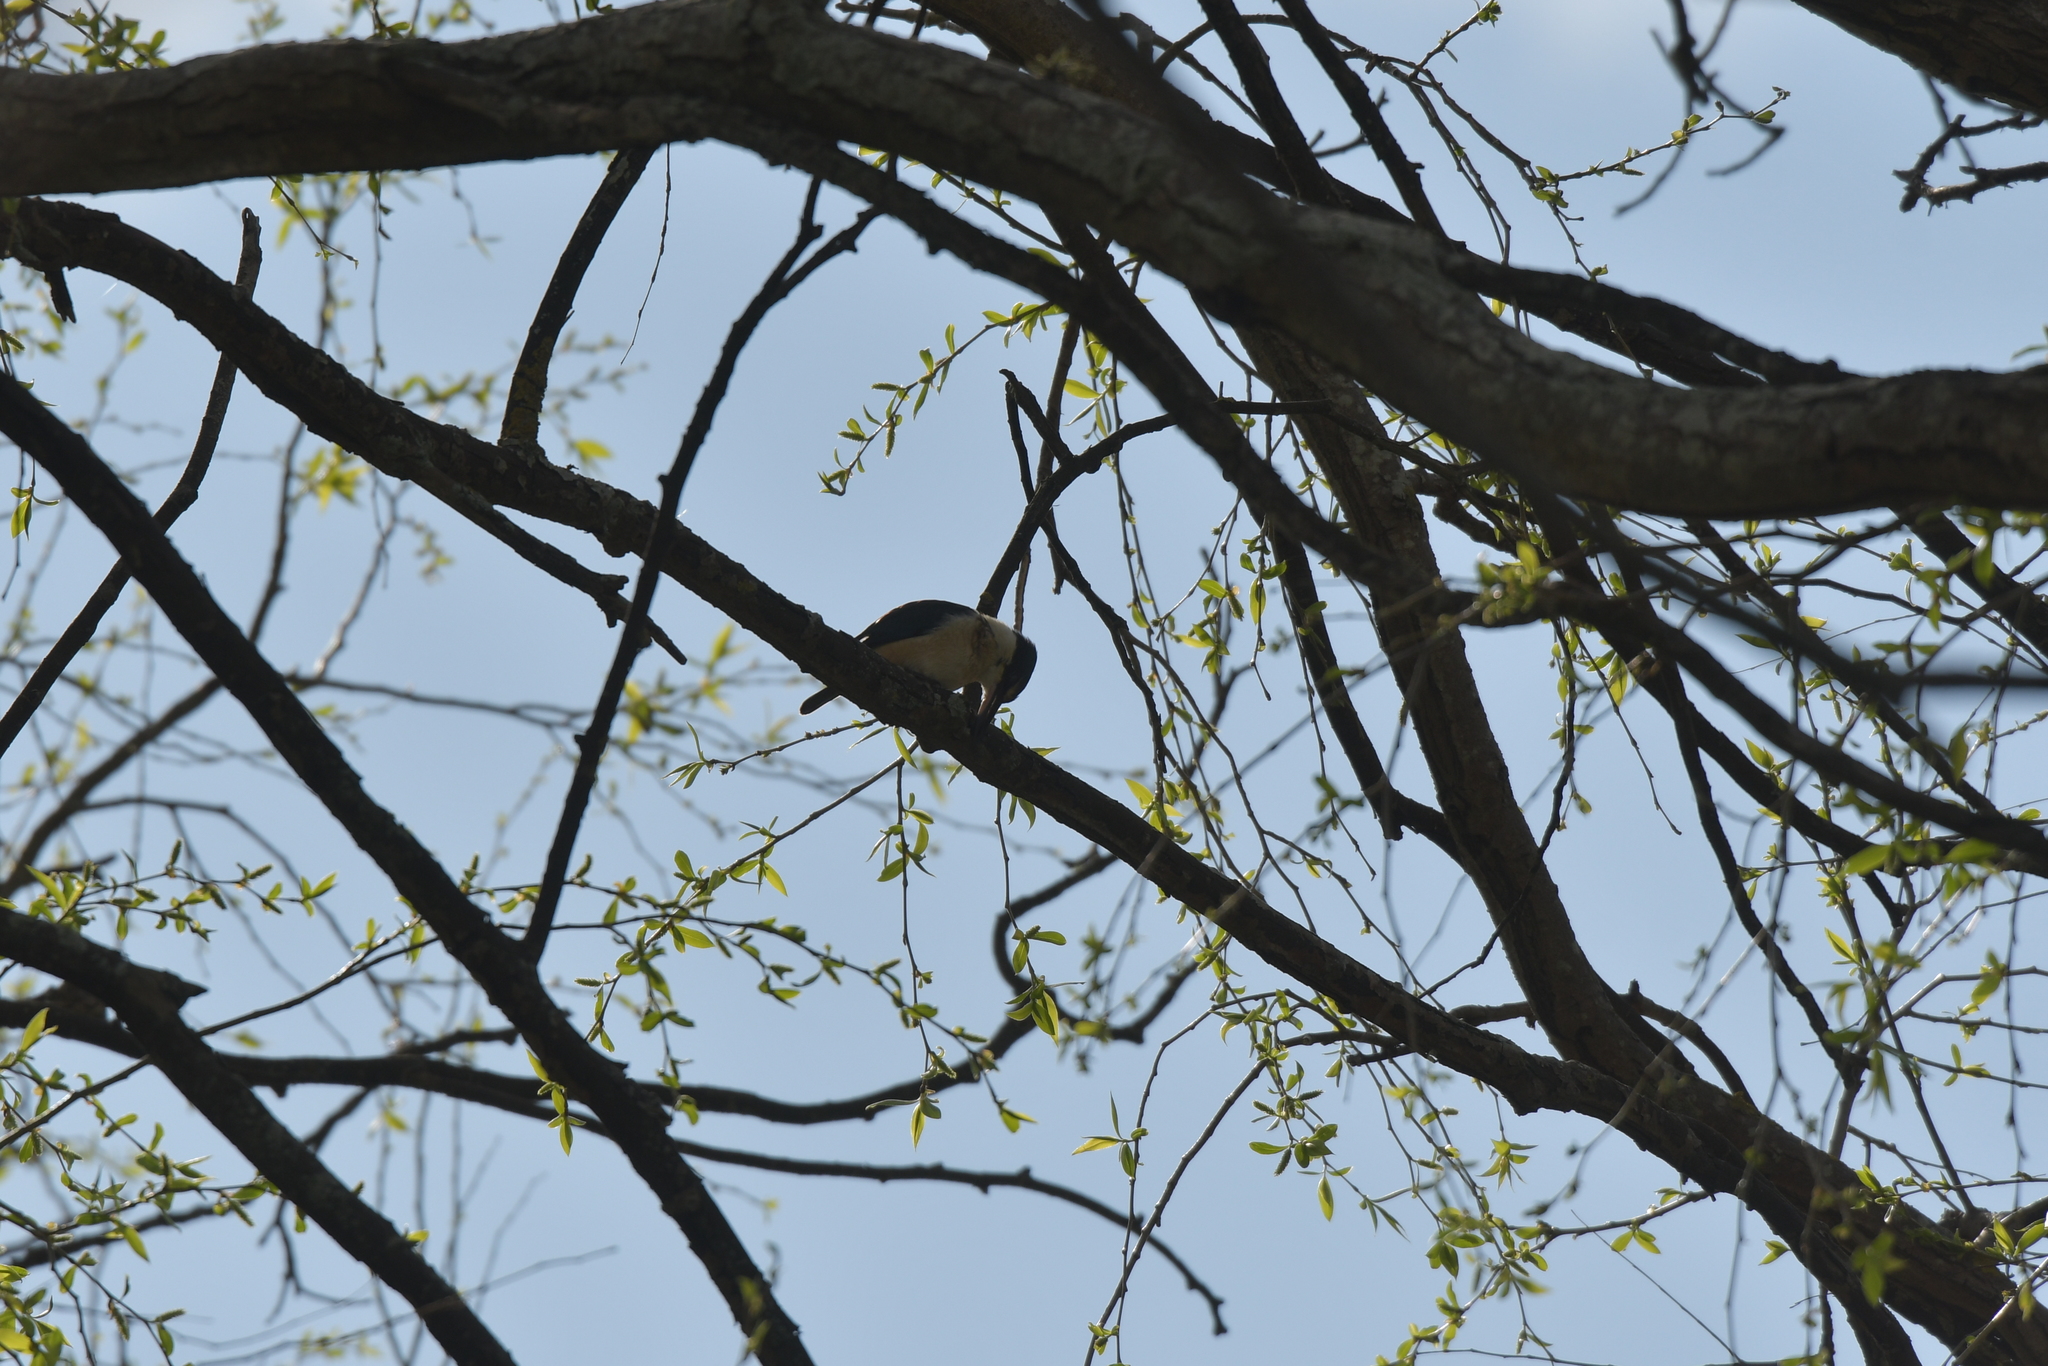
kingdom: Animalia
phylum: Chordata
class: Aves
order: Coraciiformes
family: Alcedinidae
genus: Todiramphus
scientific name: Todiramphus sanctus
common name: Sacred kingfisher
